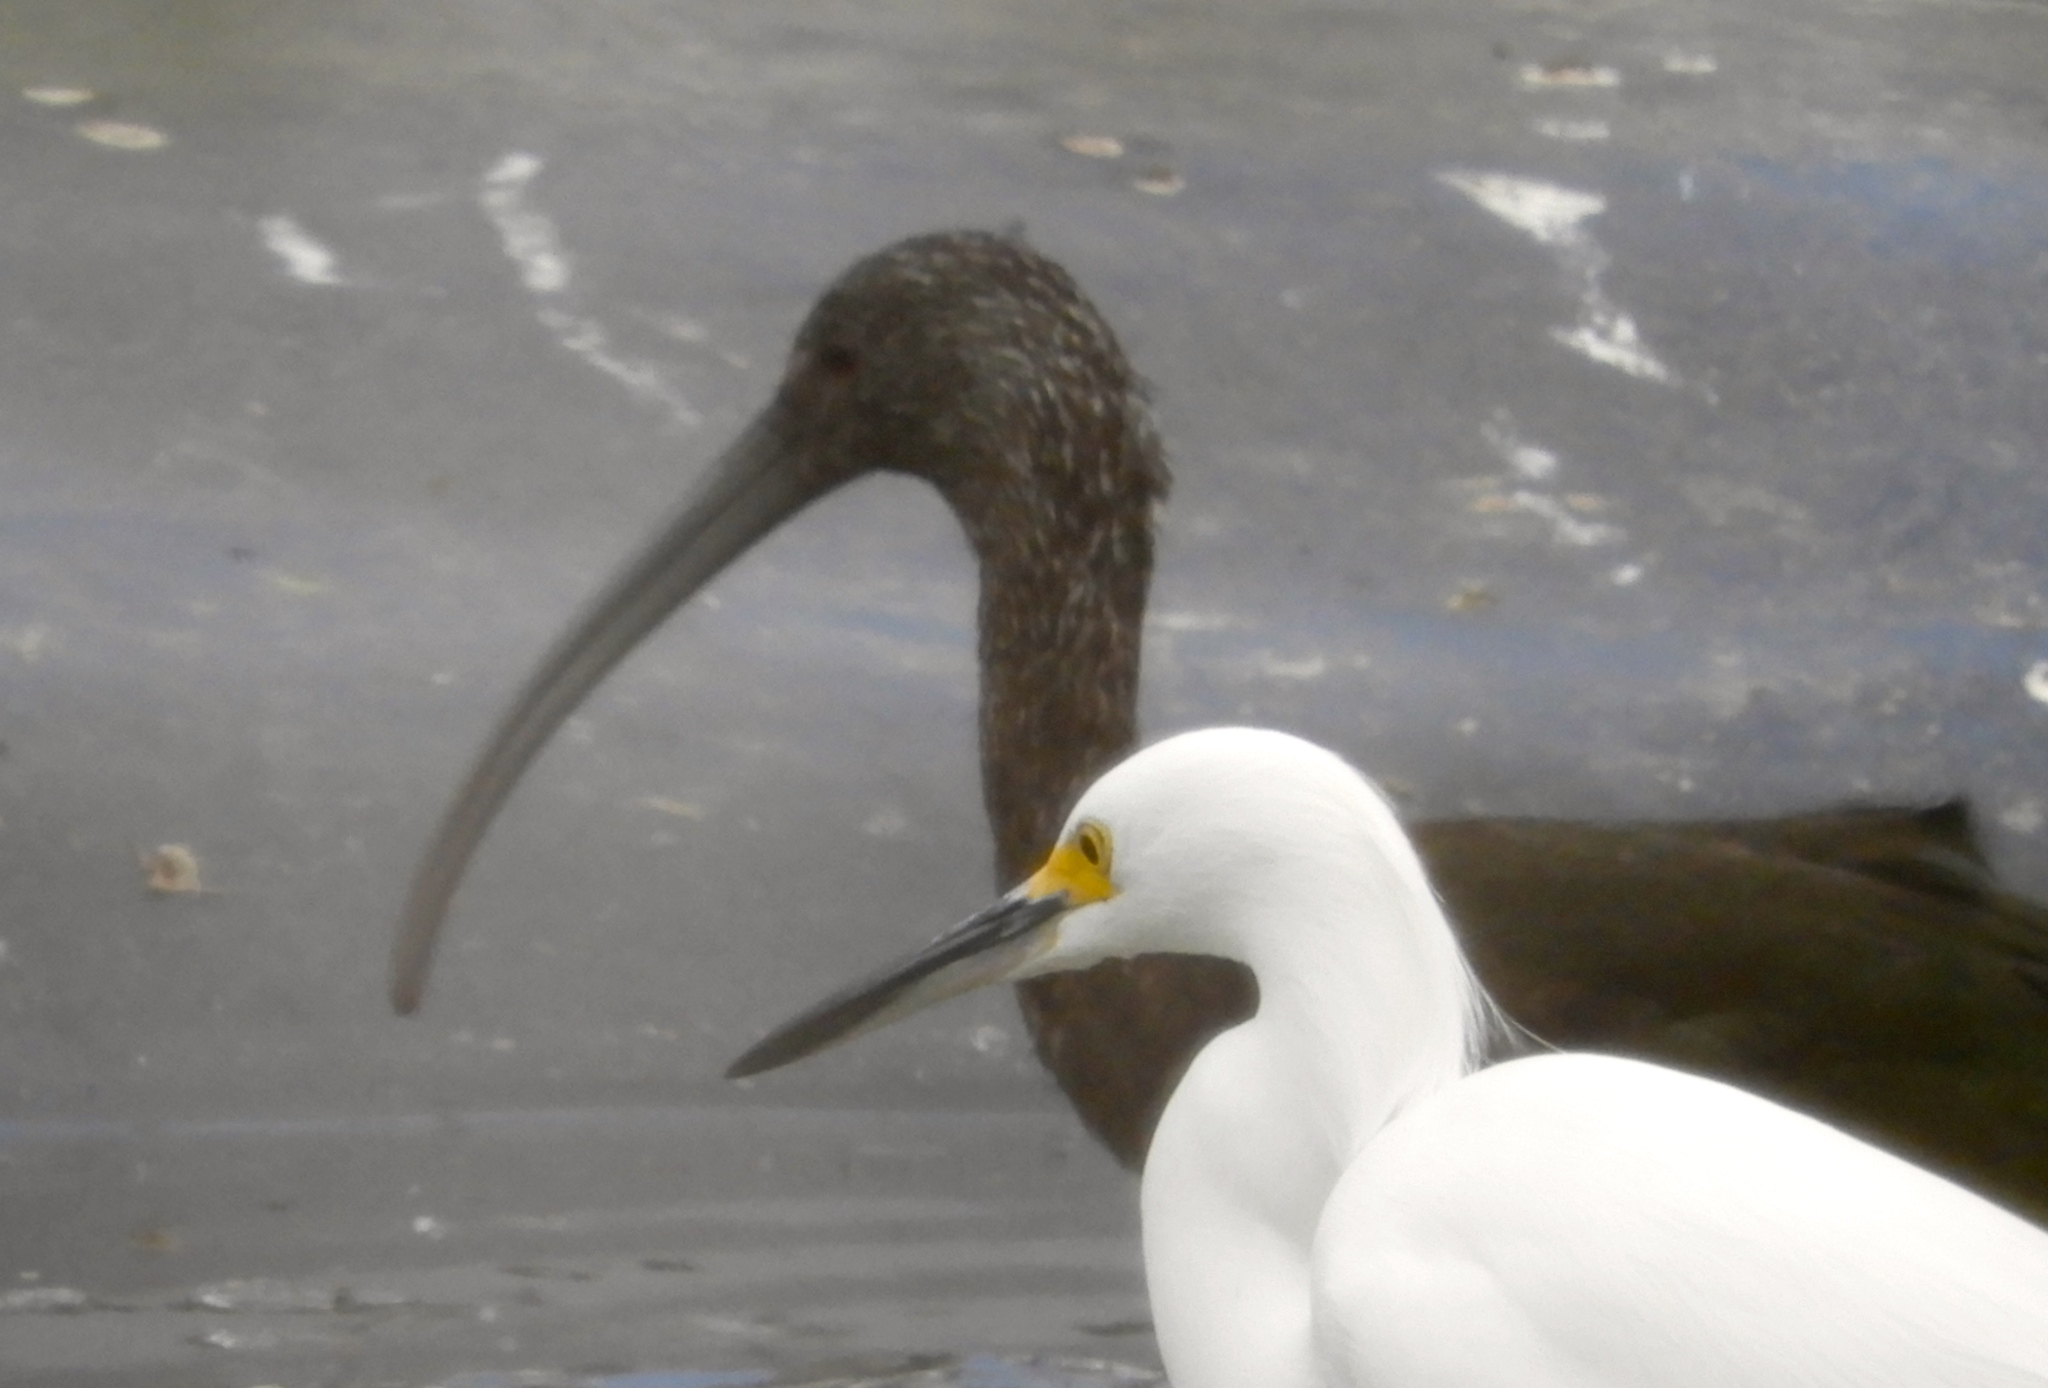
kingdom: Animalia
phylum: Chordata
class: Aves
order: Pelecaniformes
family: Threskiornithidae
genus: Plegadis
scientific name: Plegadis chihi
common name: White-faced ibis
